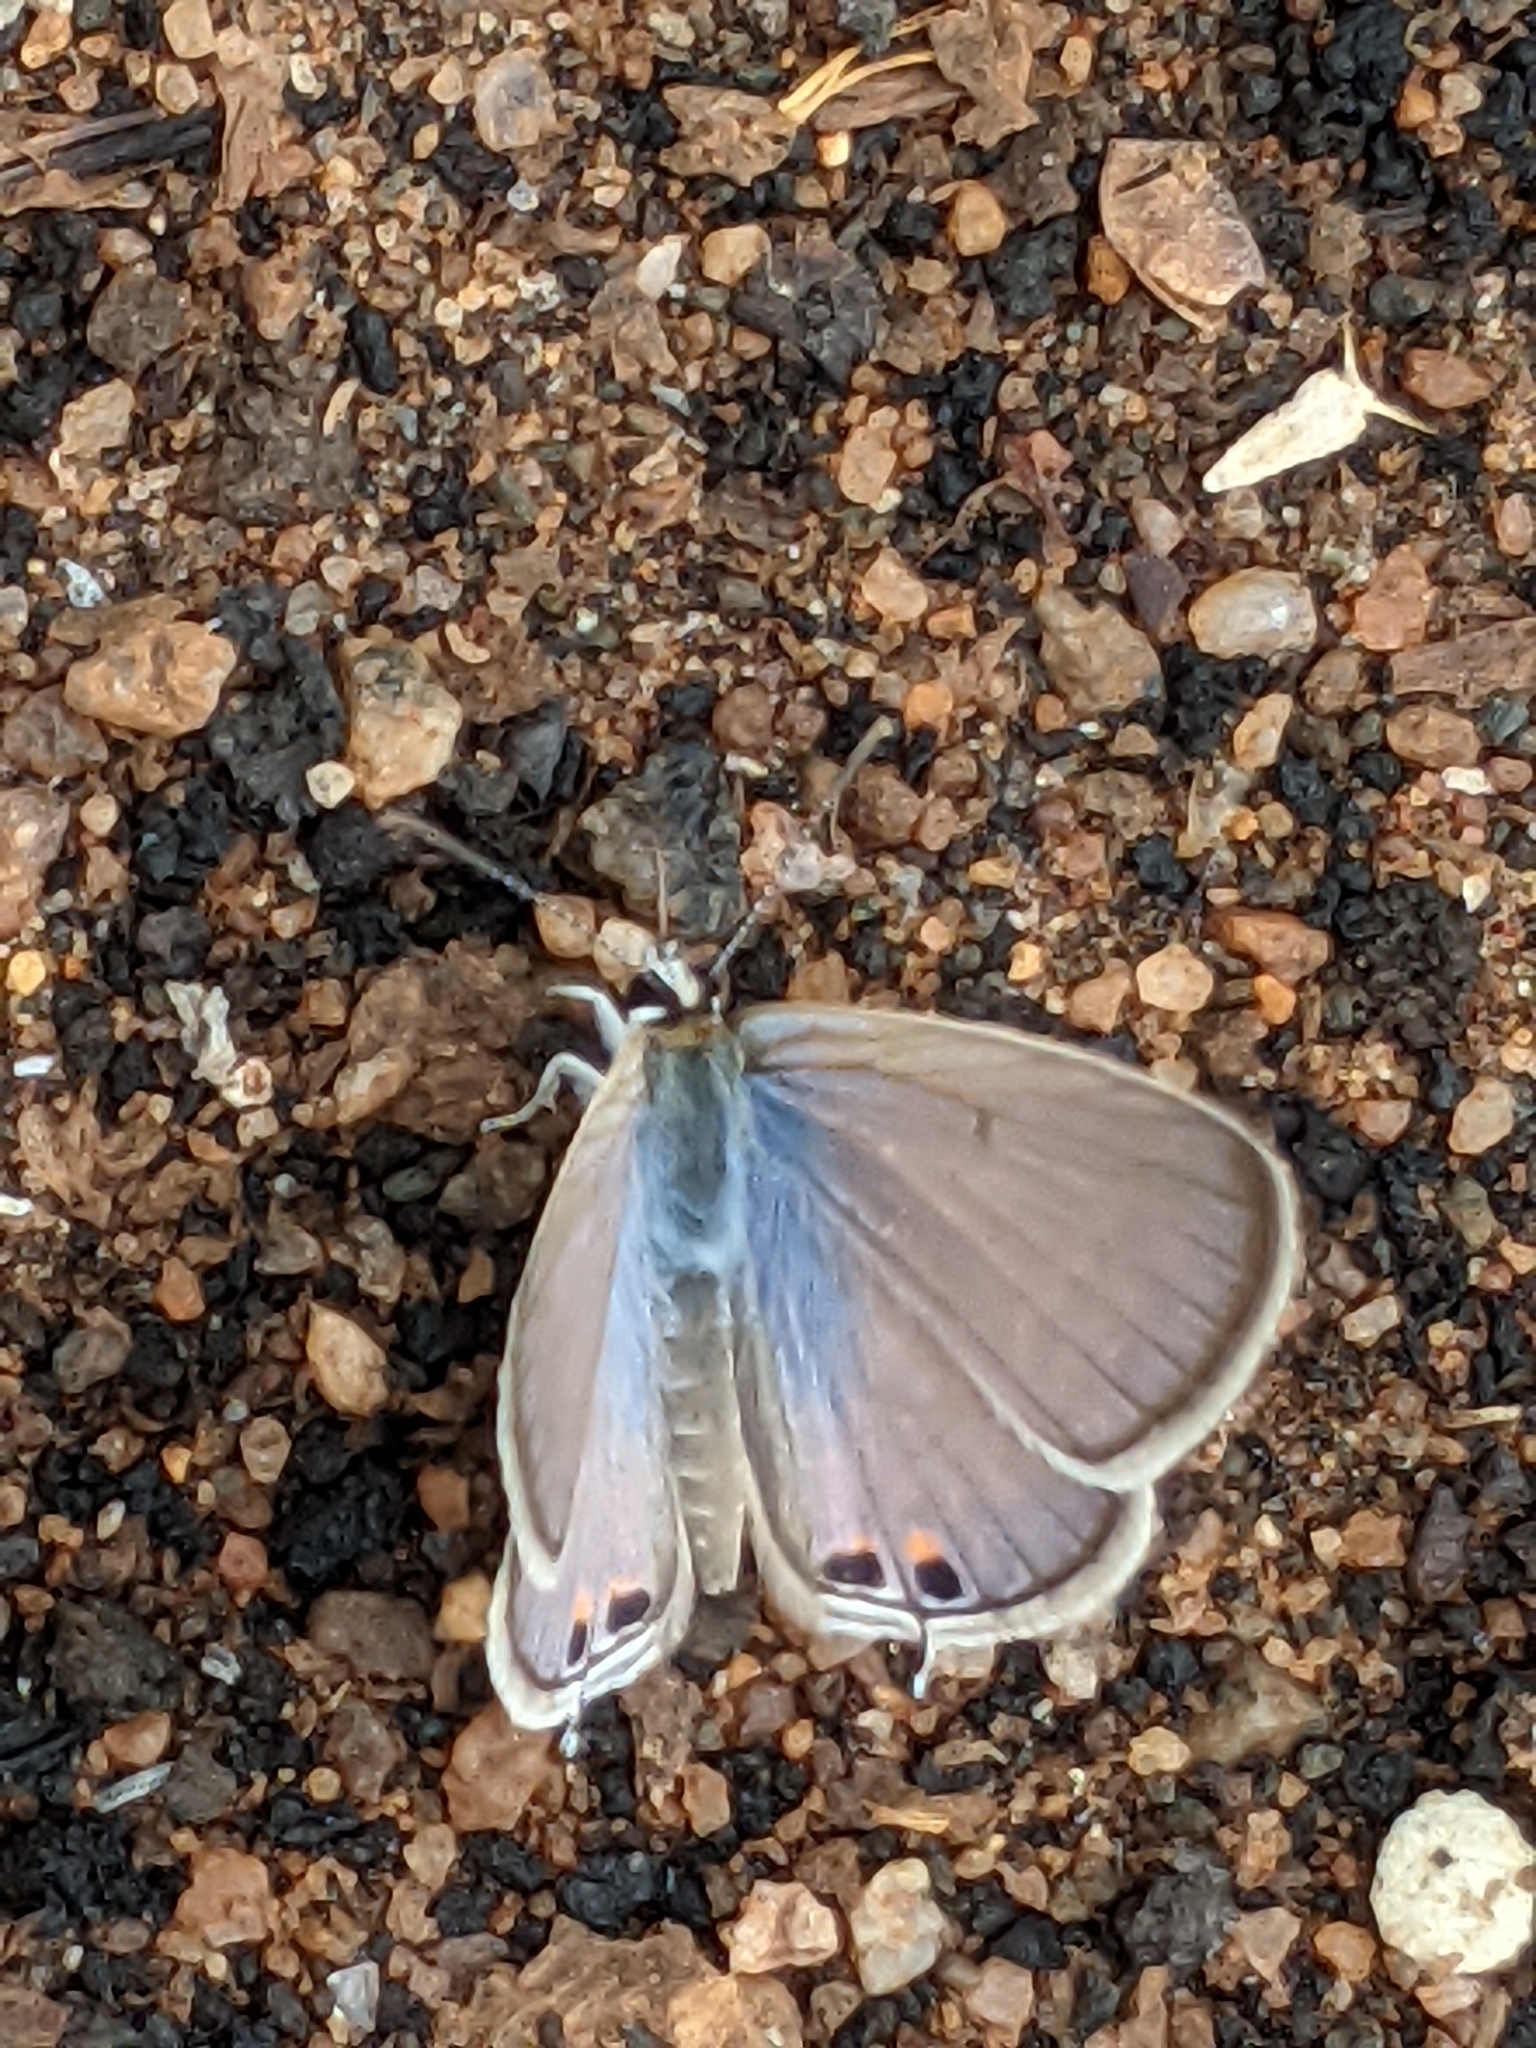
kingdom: Animalia
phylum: Arthropoda
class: Insecta
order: Lepidoptera
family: Lycaenidae
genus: Euchrysops
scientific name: Euchrysops cnejus
